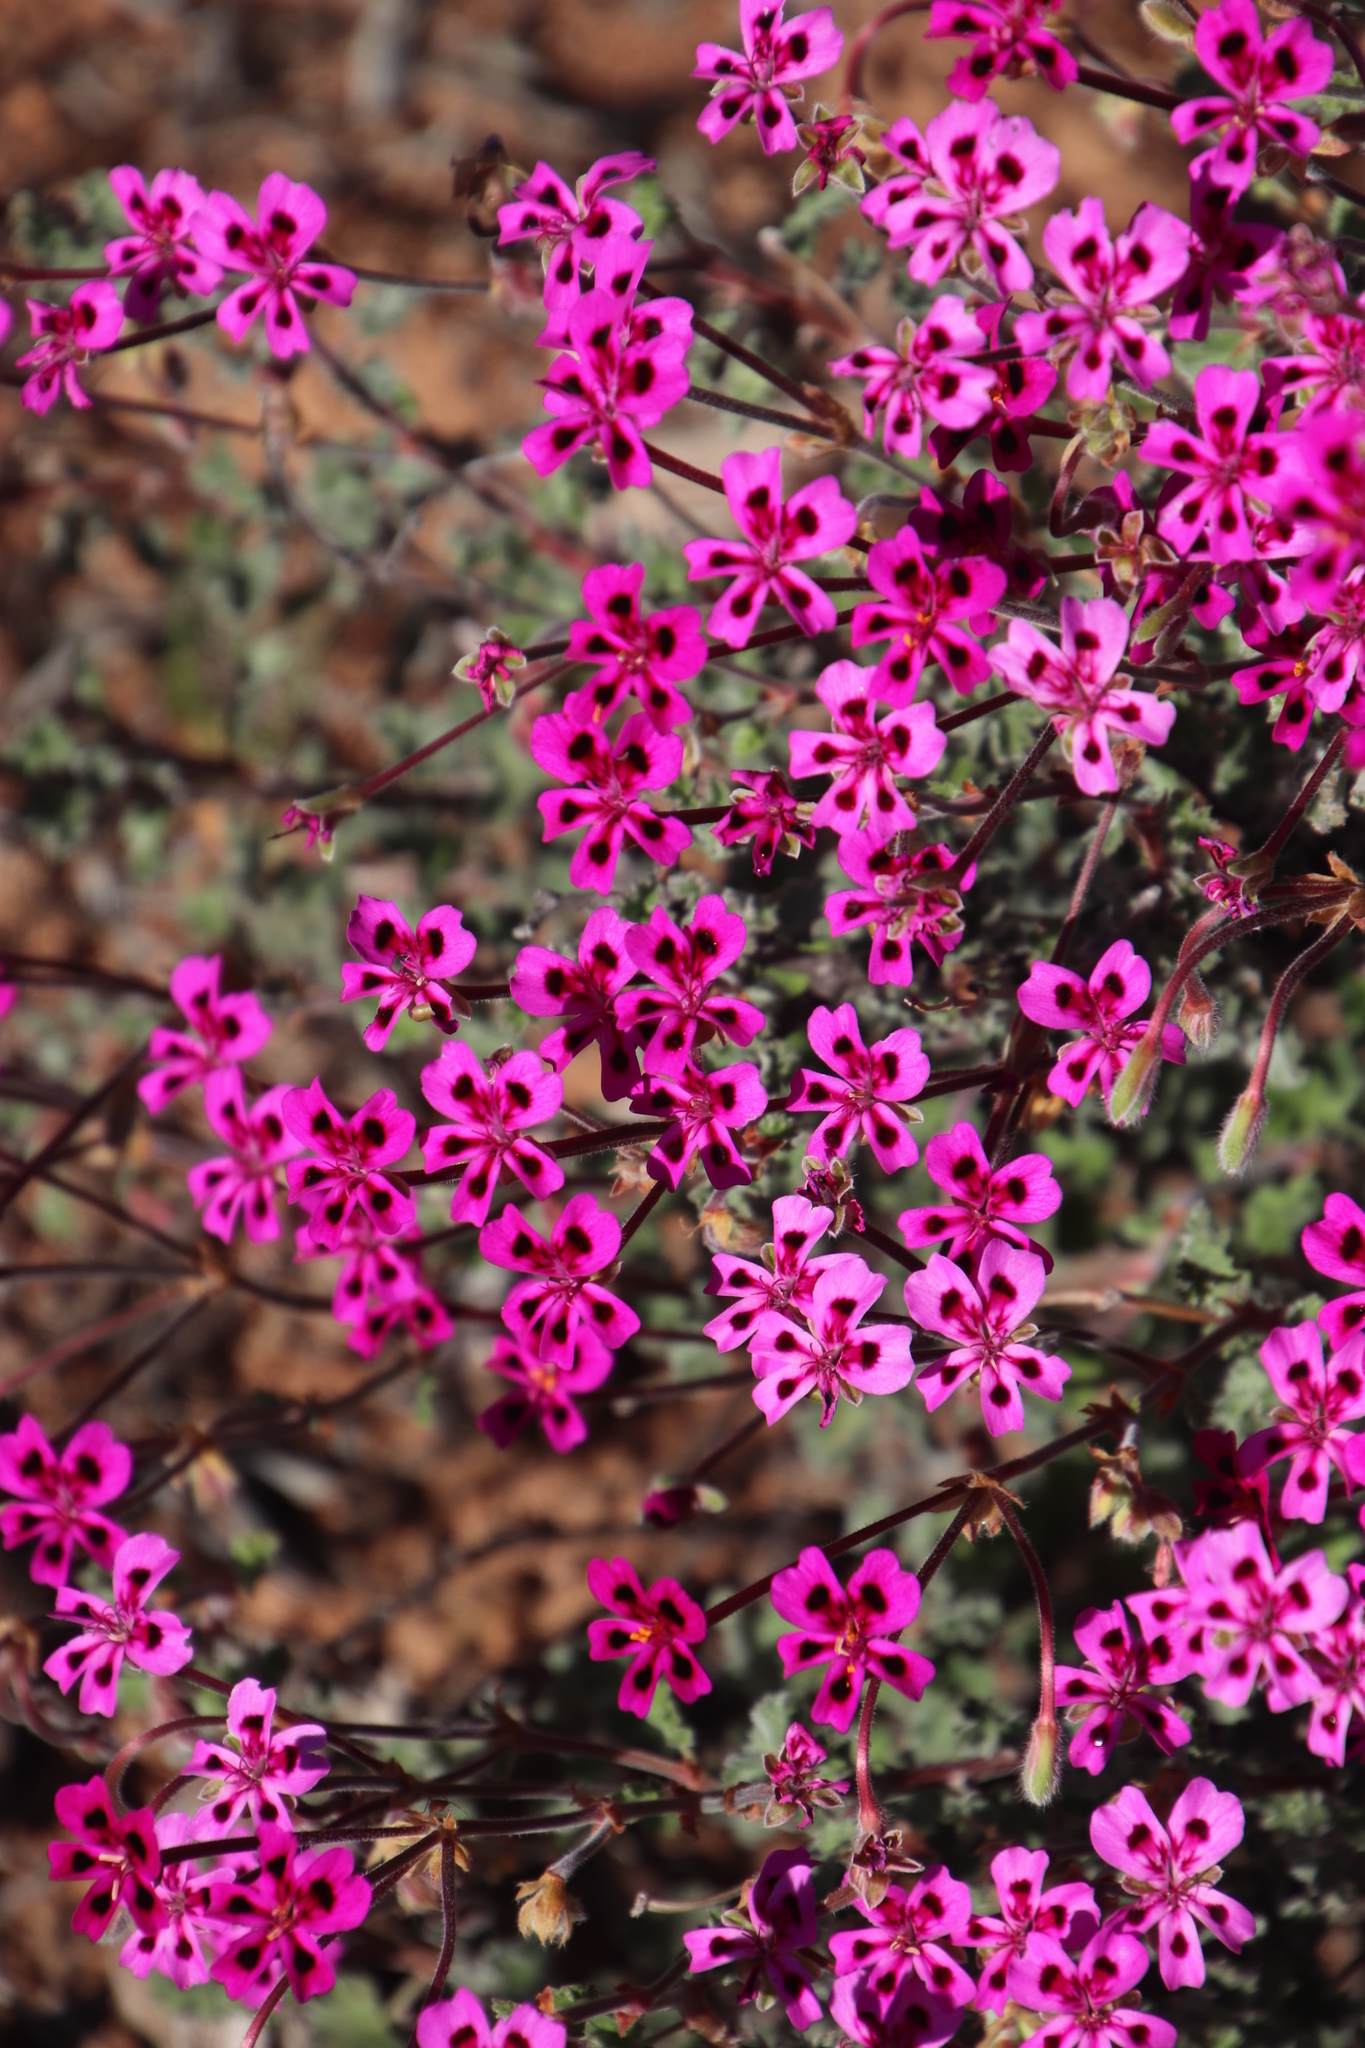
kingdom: Plantae
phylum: Tracheophyta
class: Magnoliopsida
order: Geraniales
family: Geraniaceae
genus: Pelargonium
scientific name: Pelargonium magenteum
